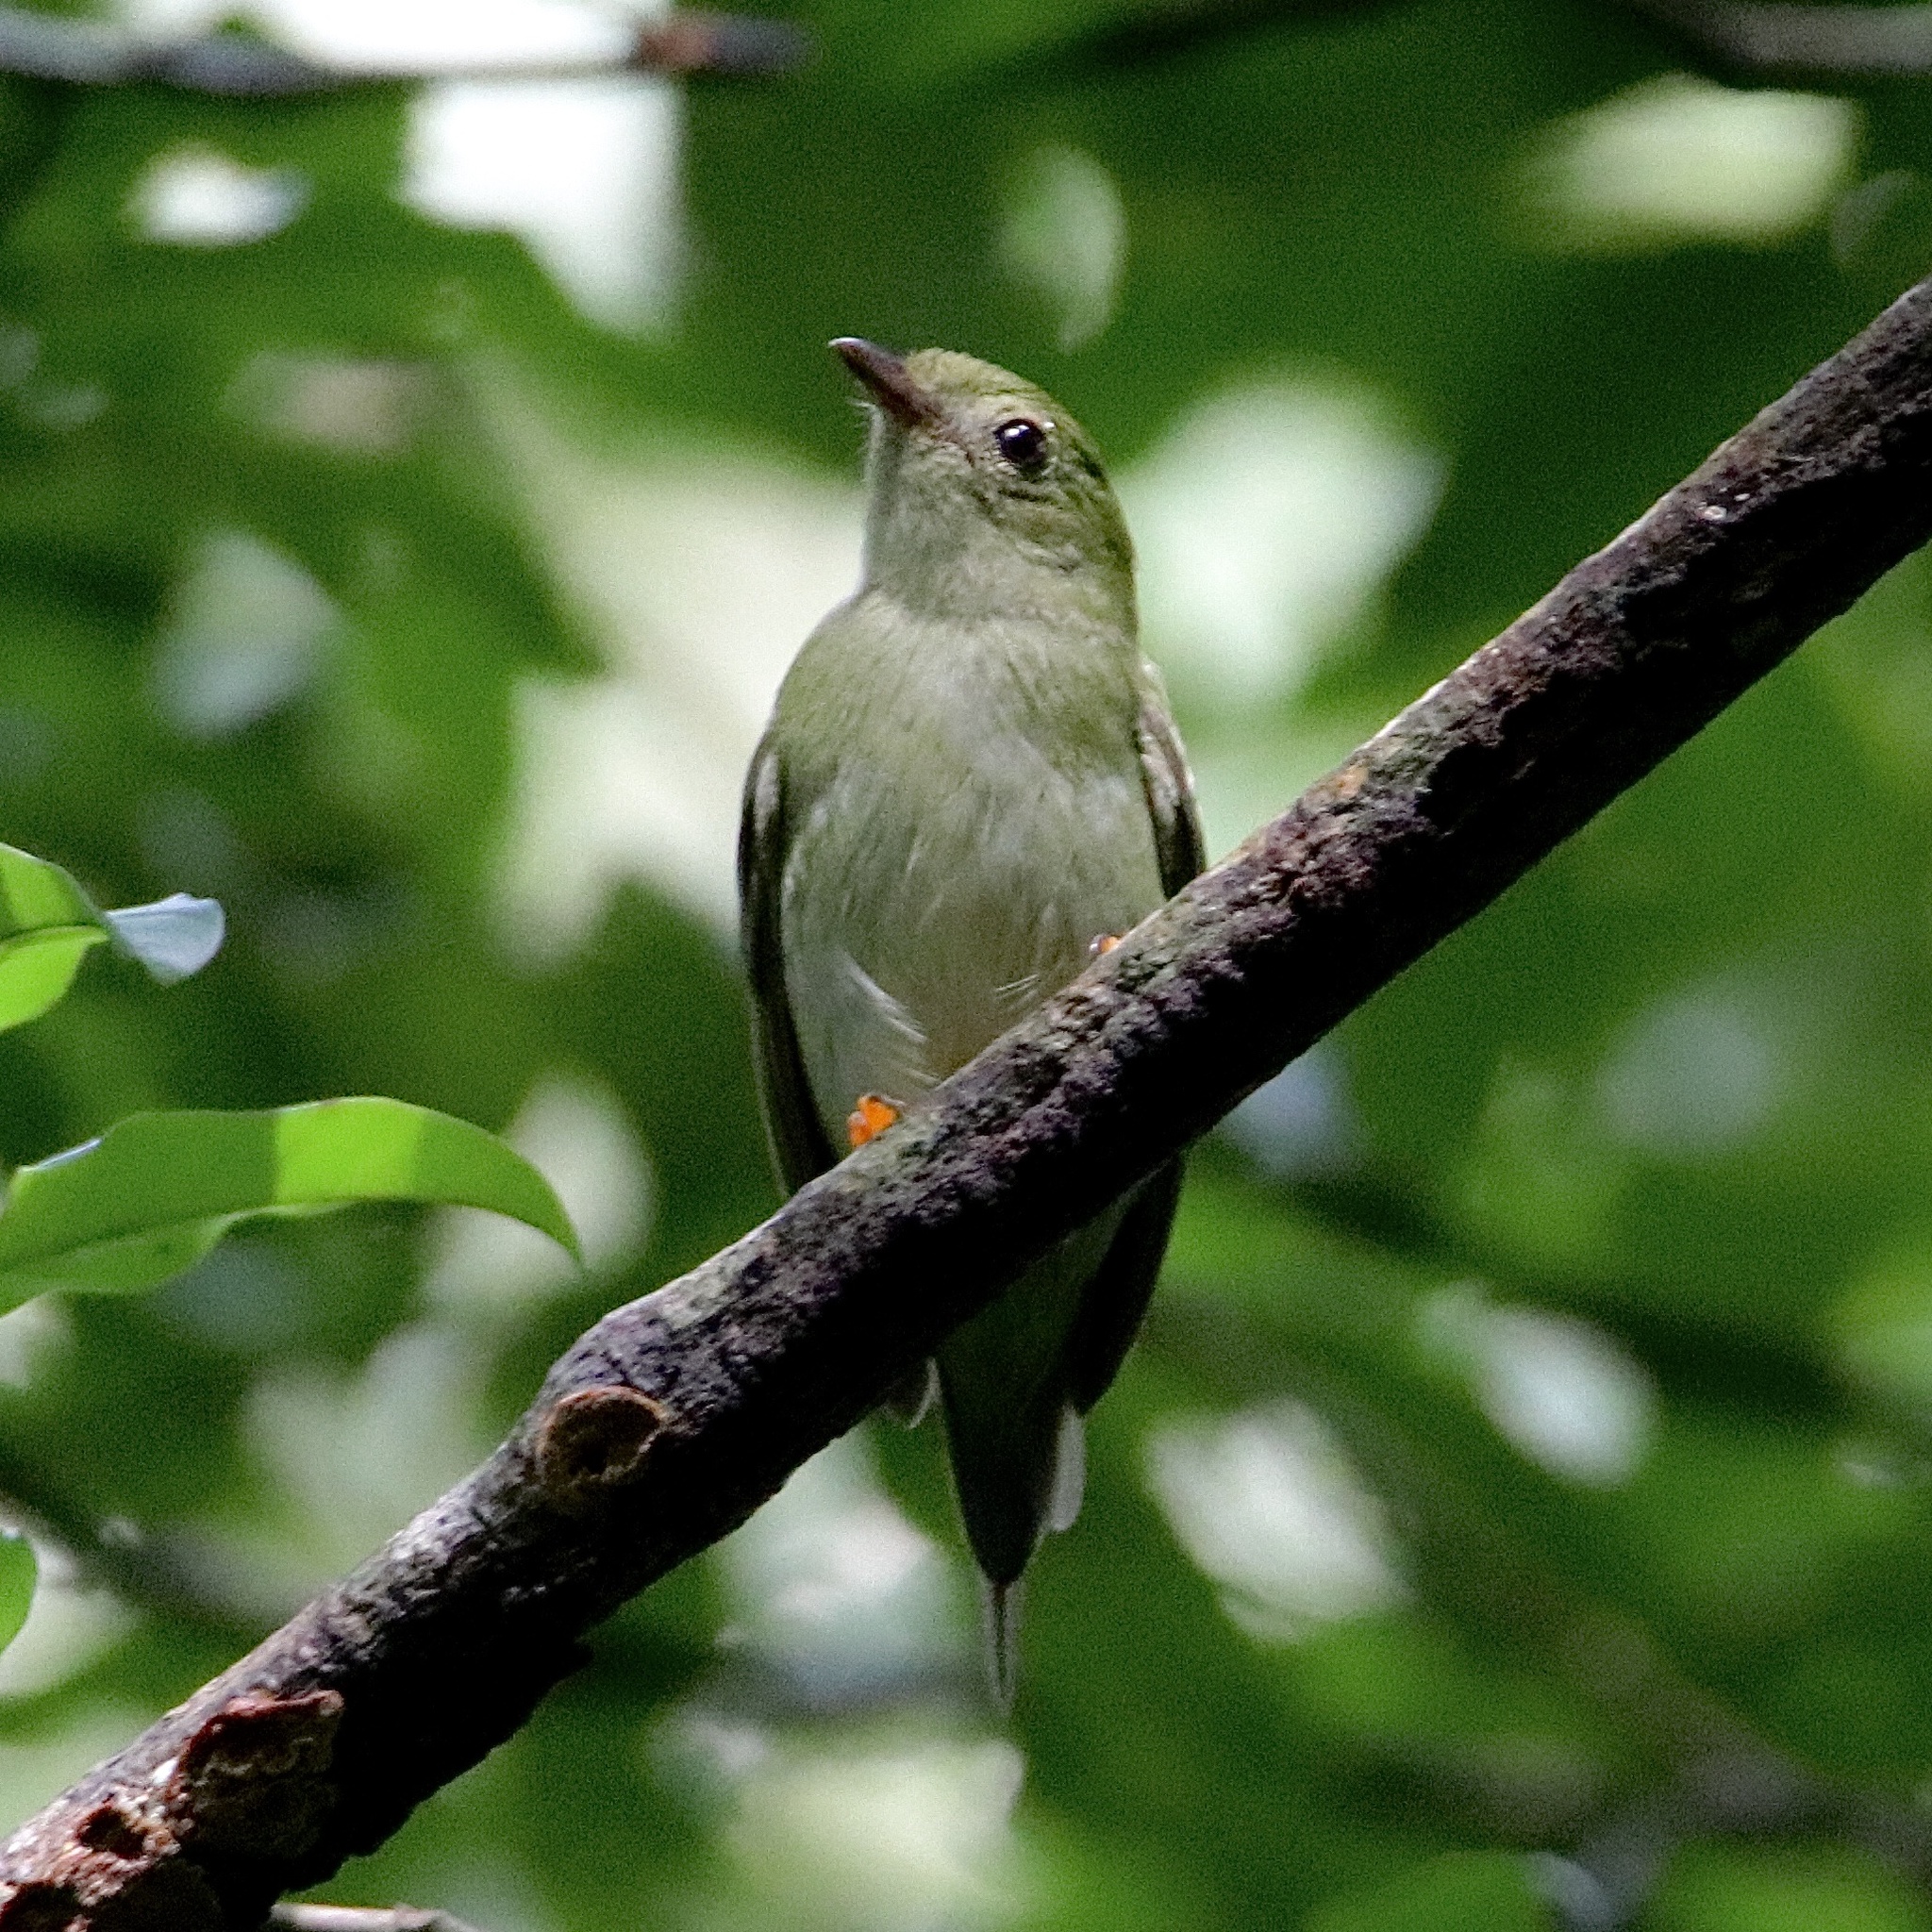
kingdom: Animalia
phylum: Chordata
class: Aves
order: Passeriformes
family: Pipridae
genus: Chiroxiphia
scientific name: Chiroxiphia lanceolata
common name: Lance-tailed manakin
